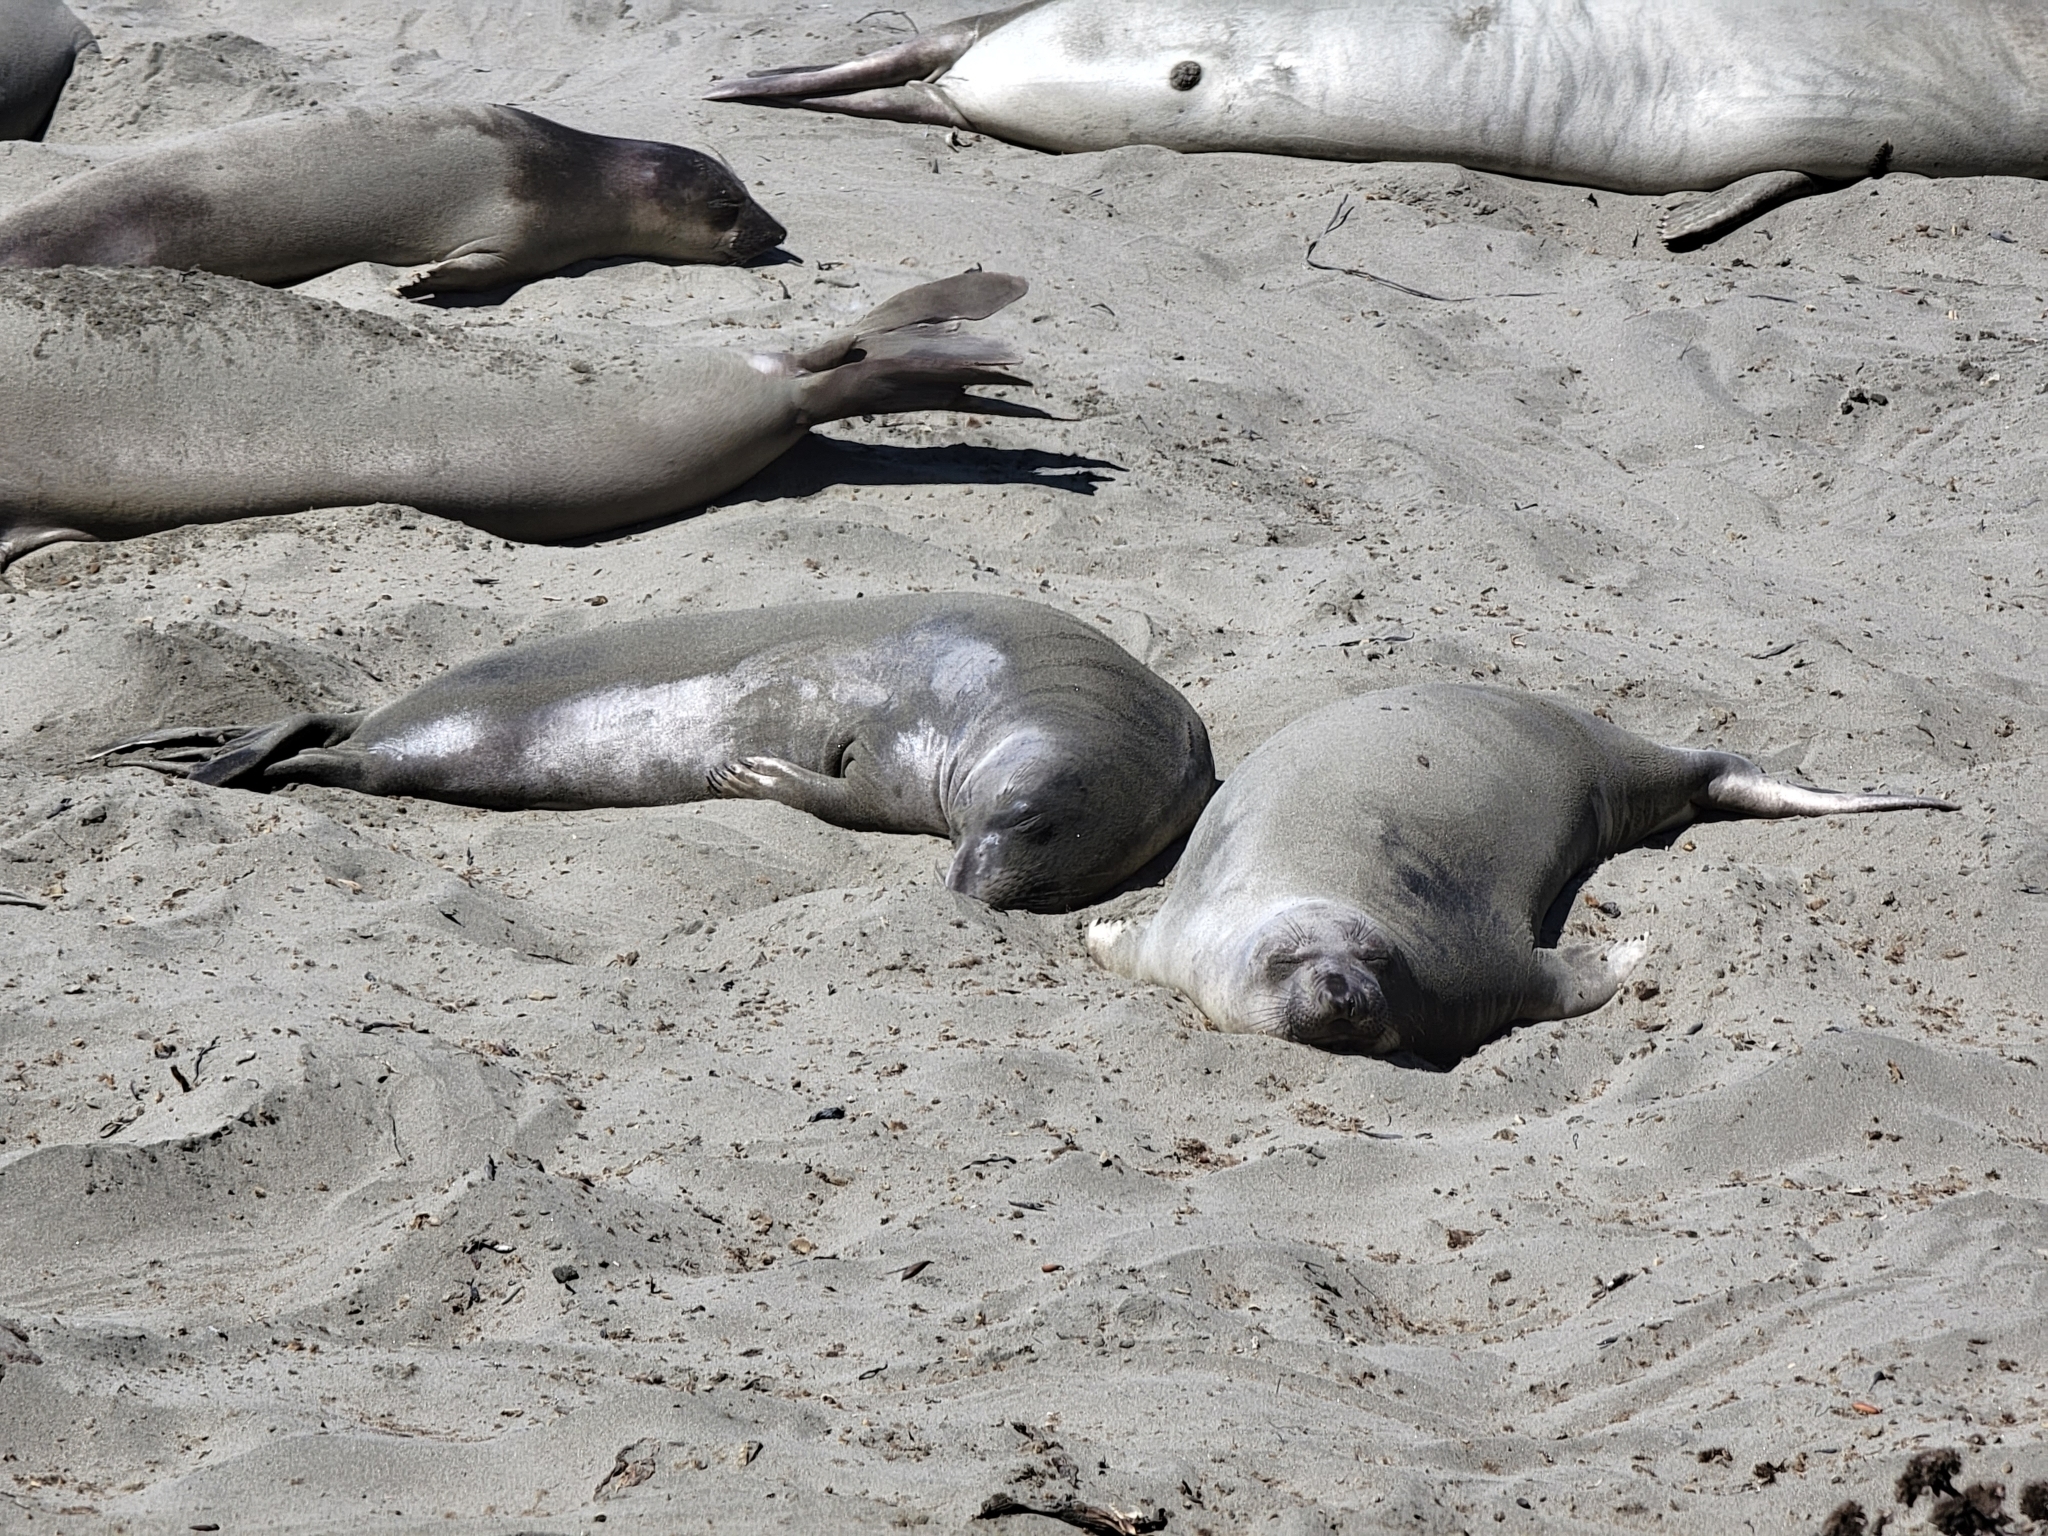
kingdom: Animalia
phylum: Chordata
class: Mammalia
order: Carnivora
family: Phocidae
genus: Mirounga
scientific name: Mirounga angustirostris
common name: Northern elephant seal
